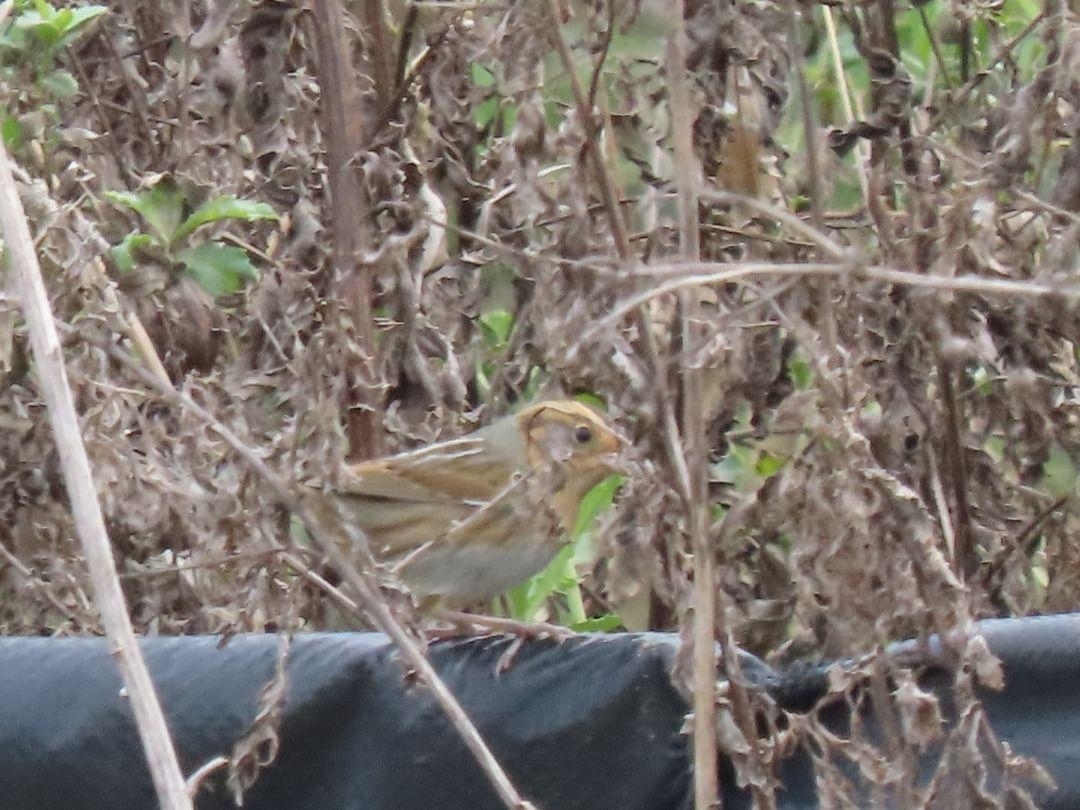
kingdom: Animalia
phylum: Chordata
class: Aves
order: Passeriformes
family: Passerellidae
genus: Ammospiza
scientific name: Ammospiza nelsoni
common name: Nelson's sparrow
